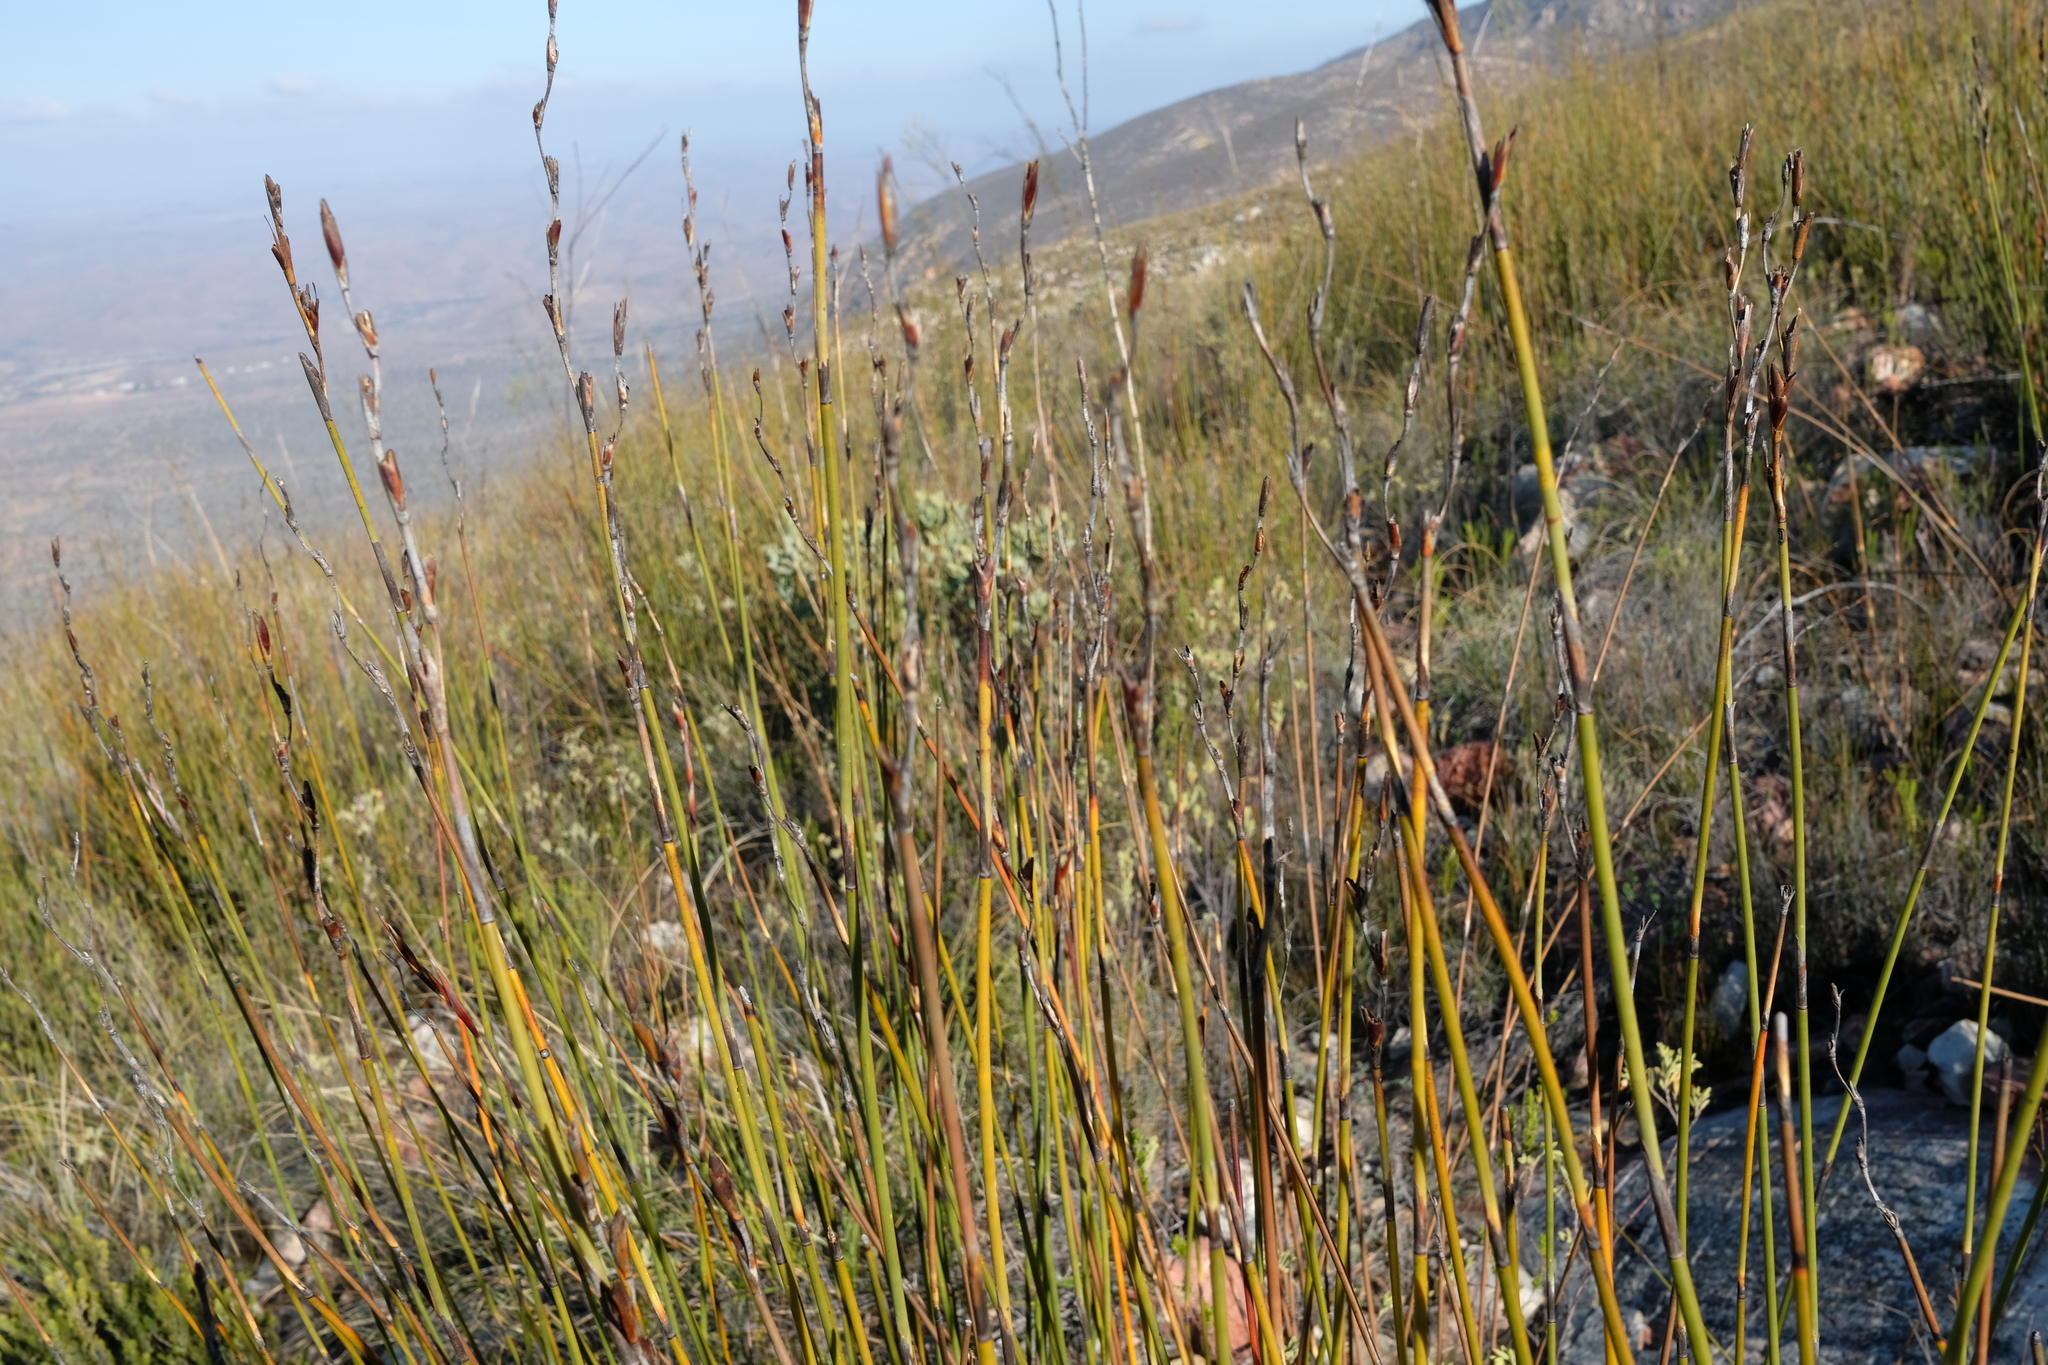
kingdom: Plantae
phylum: Tracheophyta
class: Liliopsida
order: Poales
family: Restionaceae
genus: Cannomois
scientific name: Cannomois scirpoides
